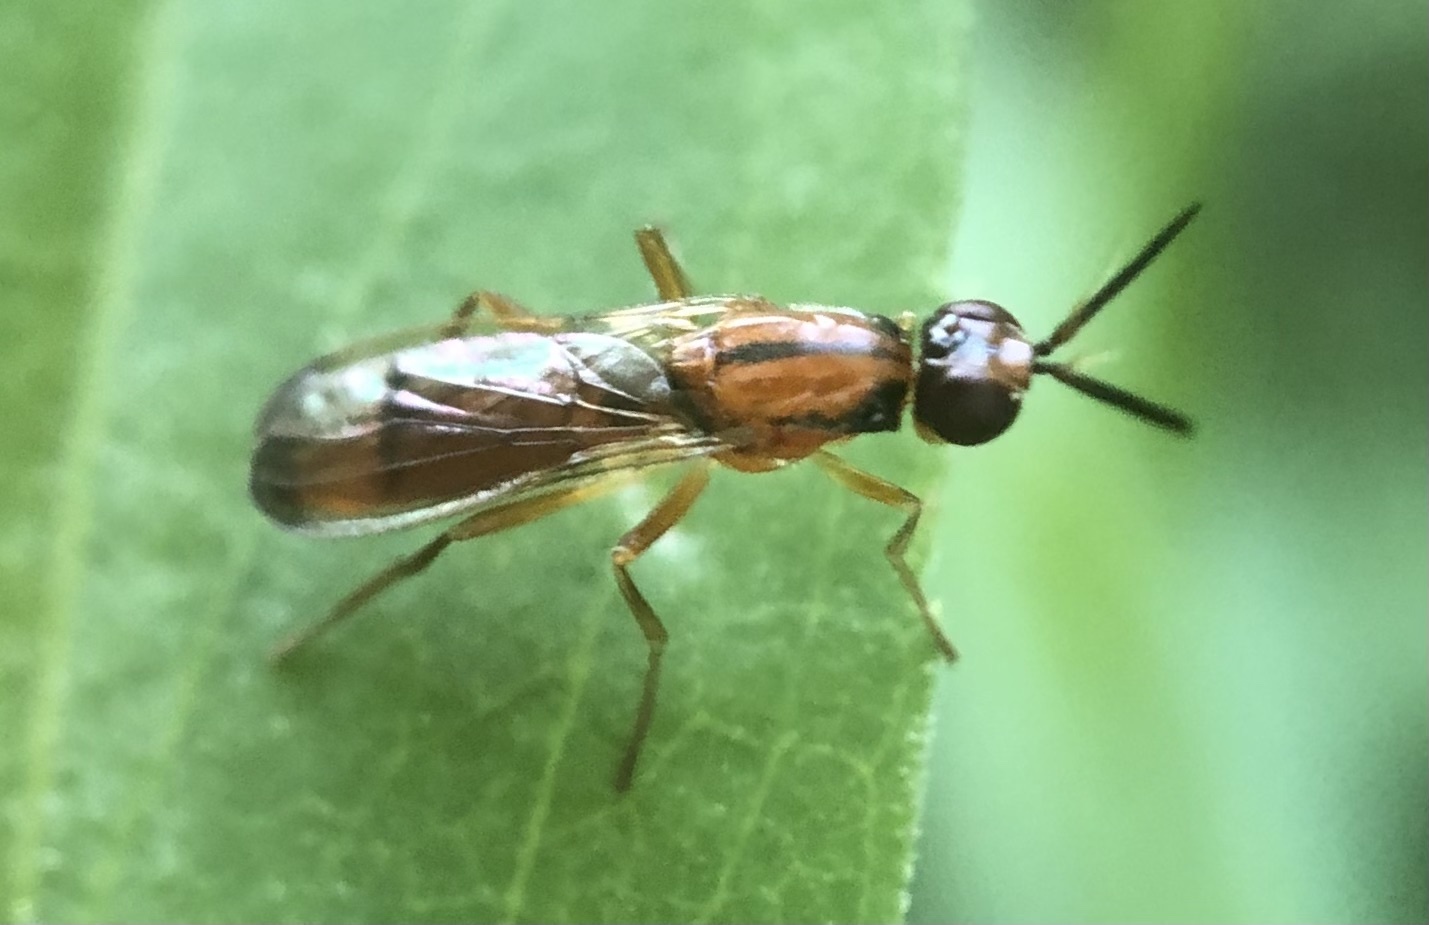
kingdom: Animalia
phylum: Arthropoda
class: Insecta
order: Diptera
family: Psilidae
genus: Loxocera
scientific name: Loxocera cylindrica
